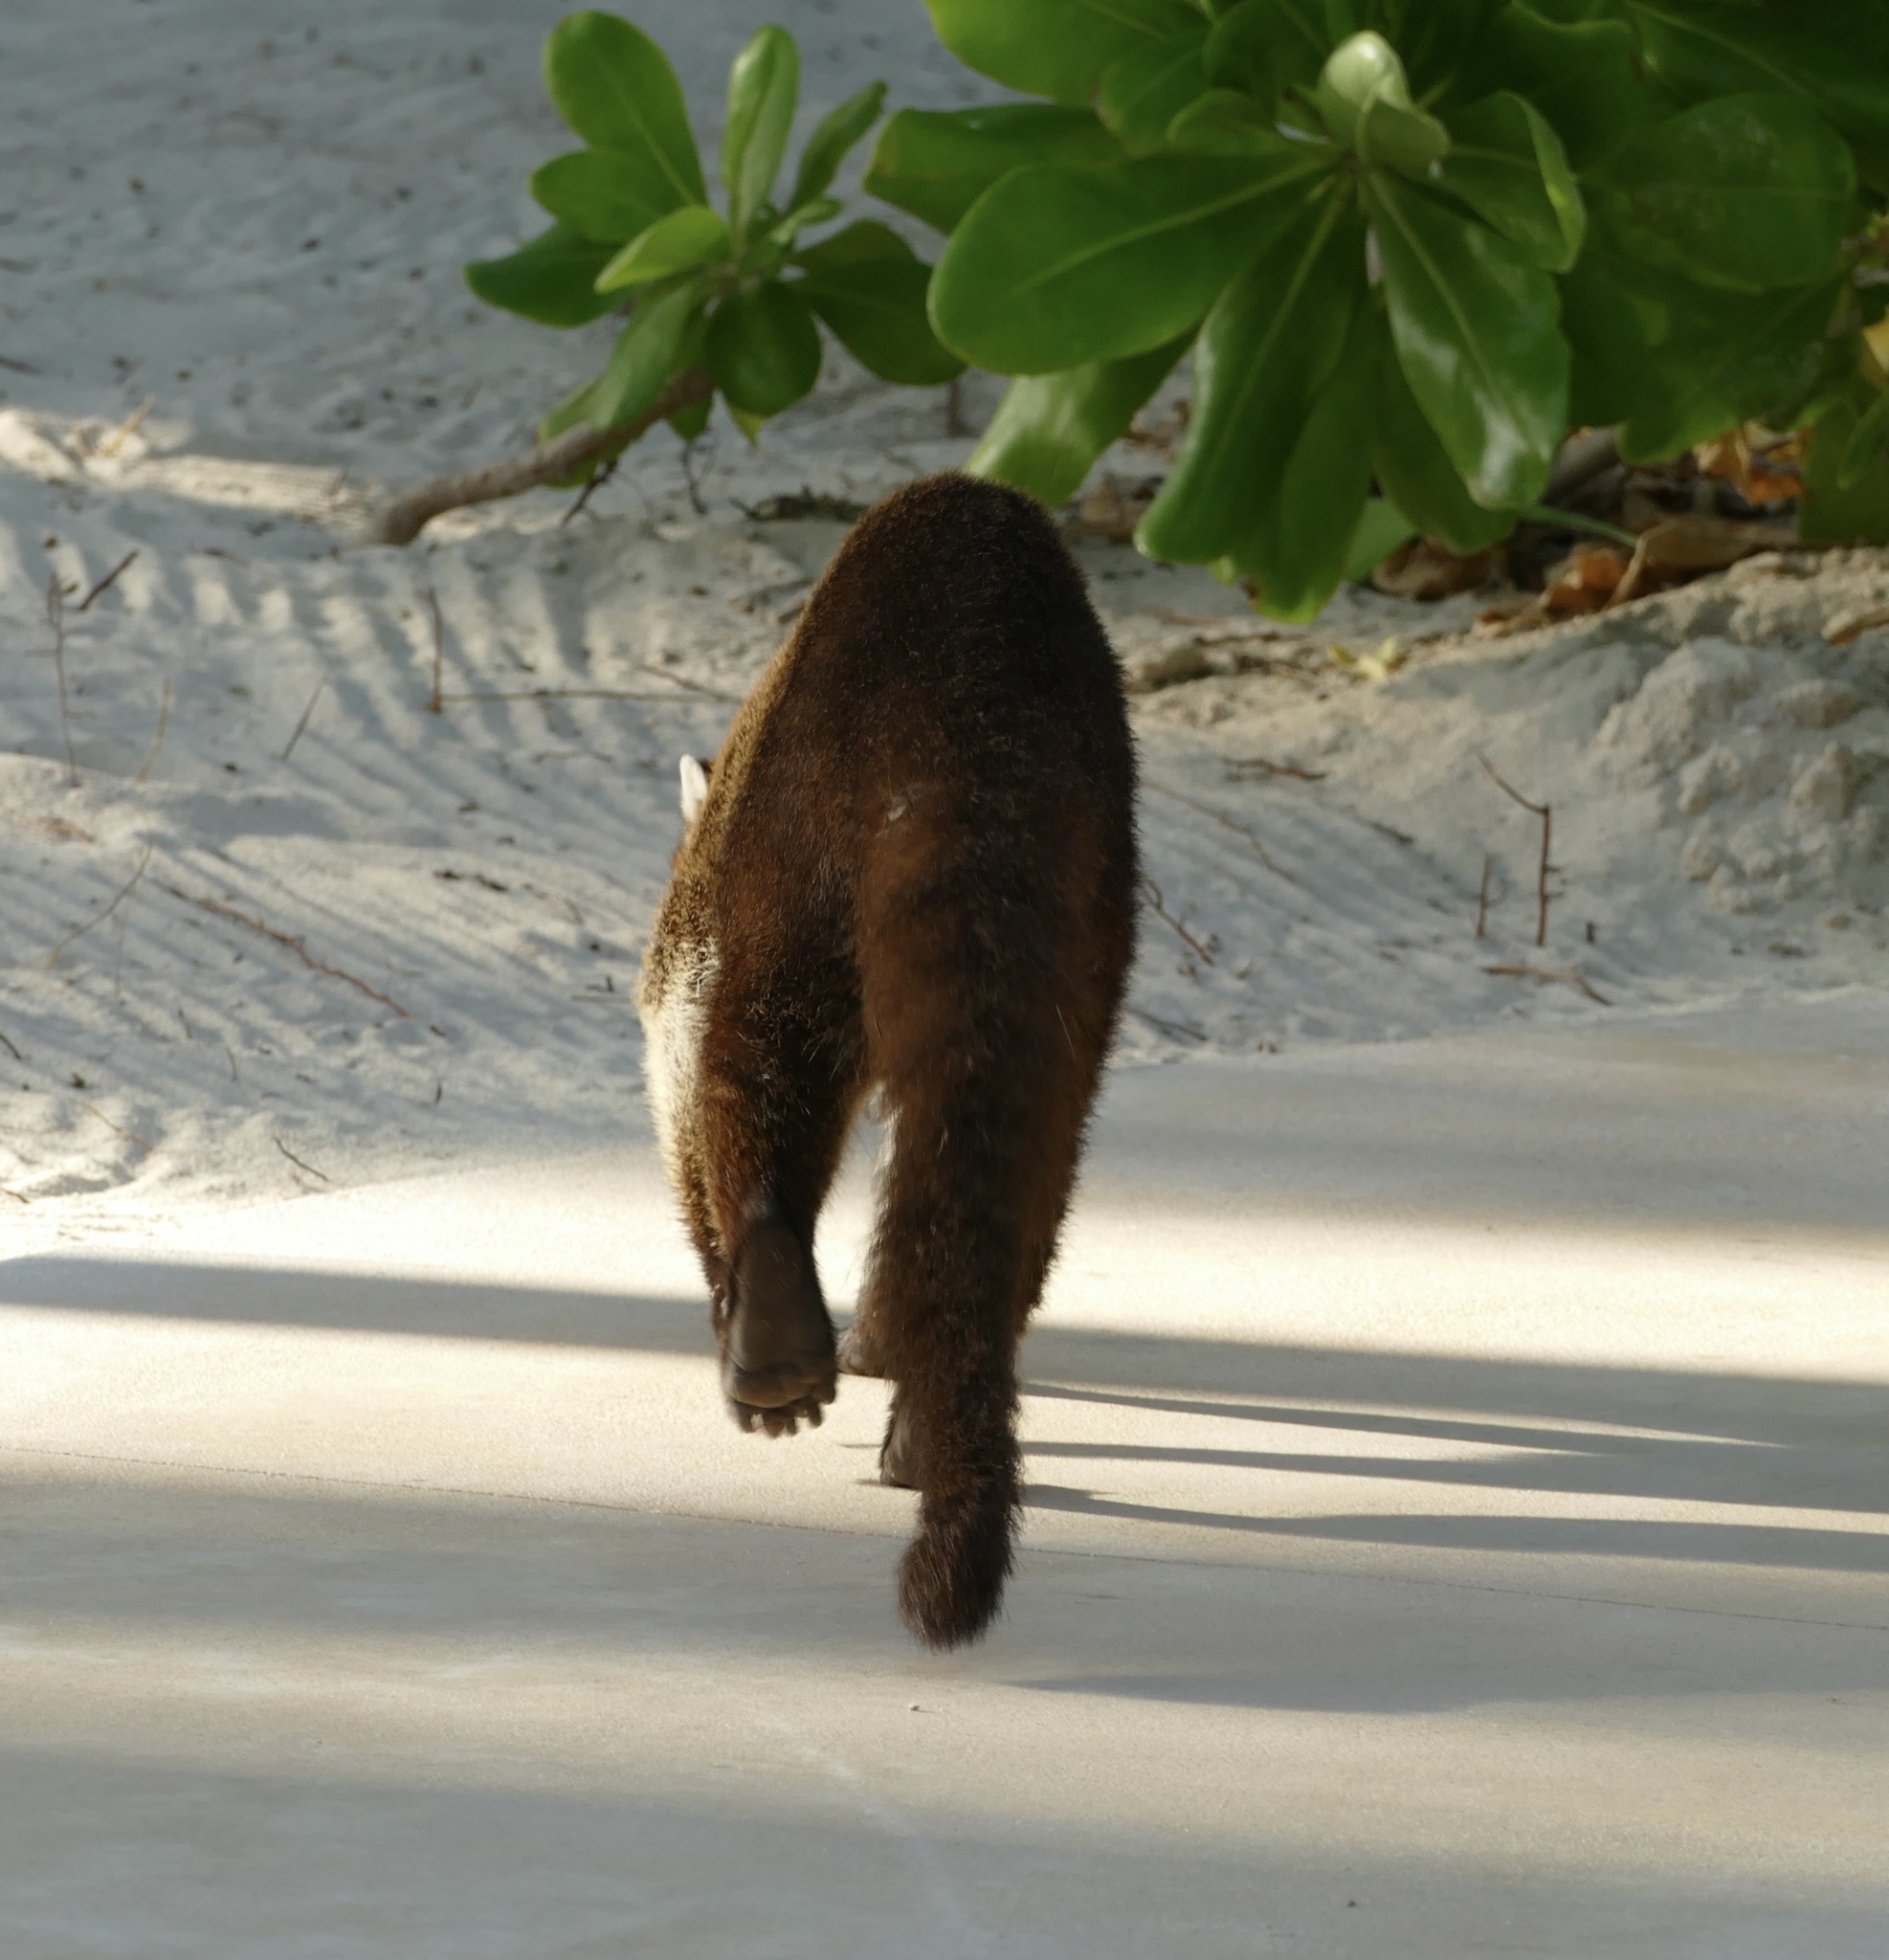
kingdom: Animalia
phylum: Chordata
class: Mammalia
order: Carnivora
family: Procyonidae
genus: Nasua
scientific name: Nasua narica
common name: White-nosed coati
